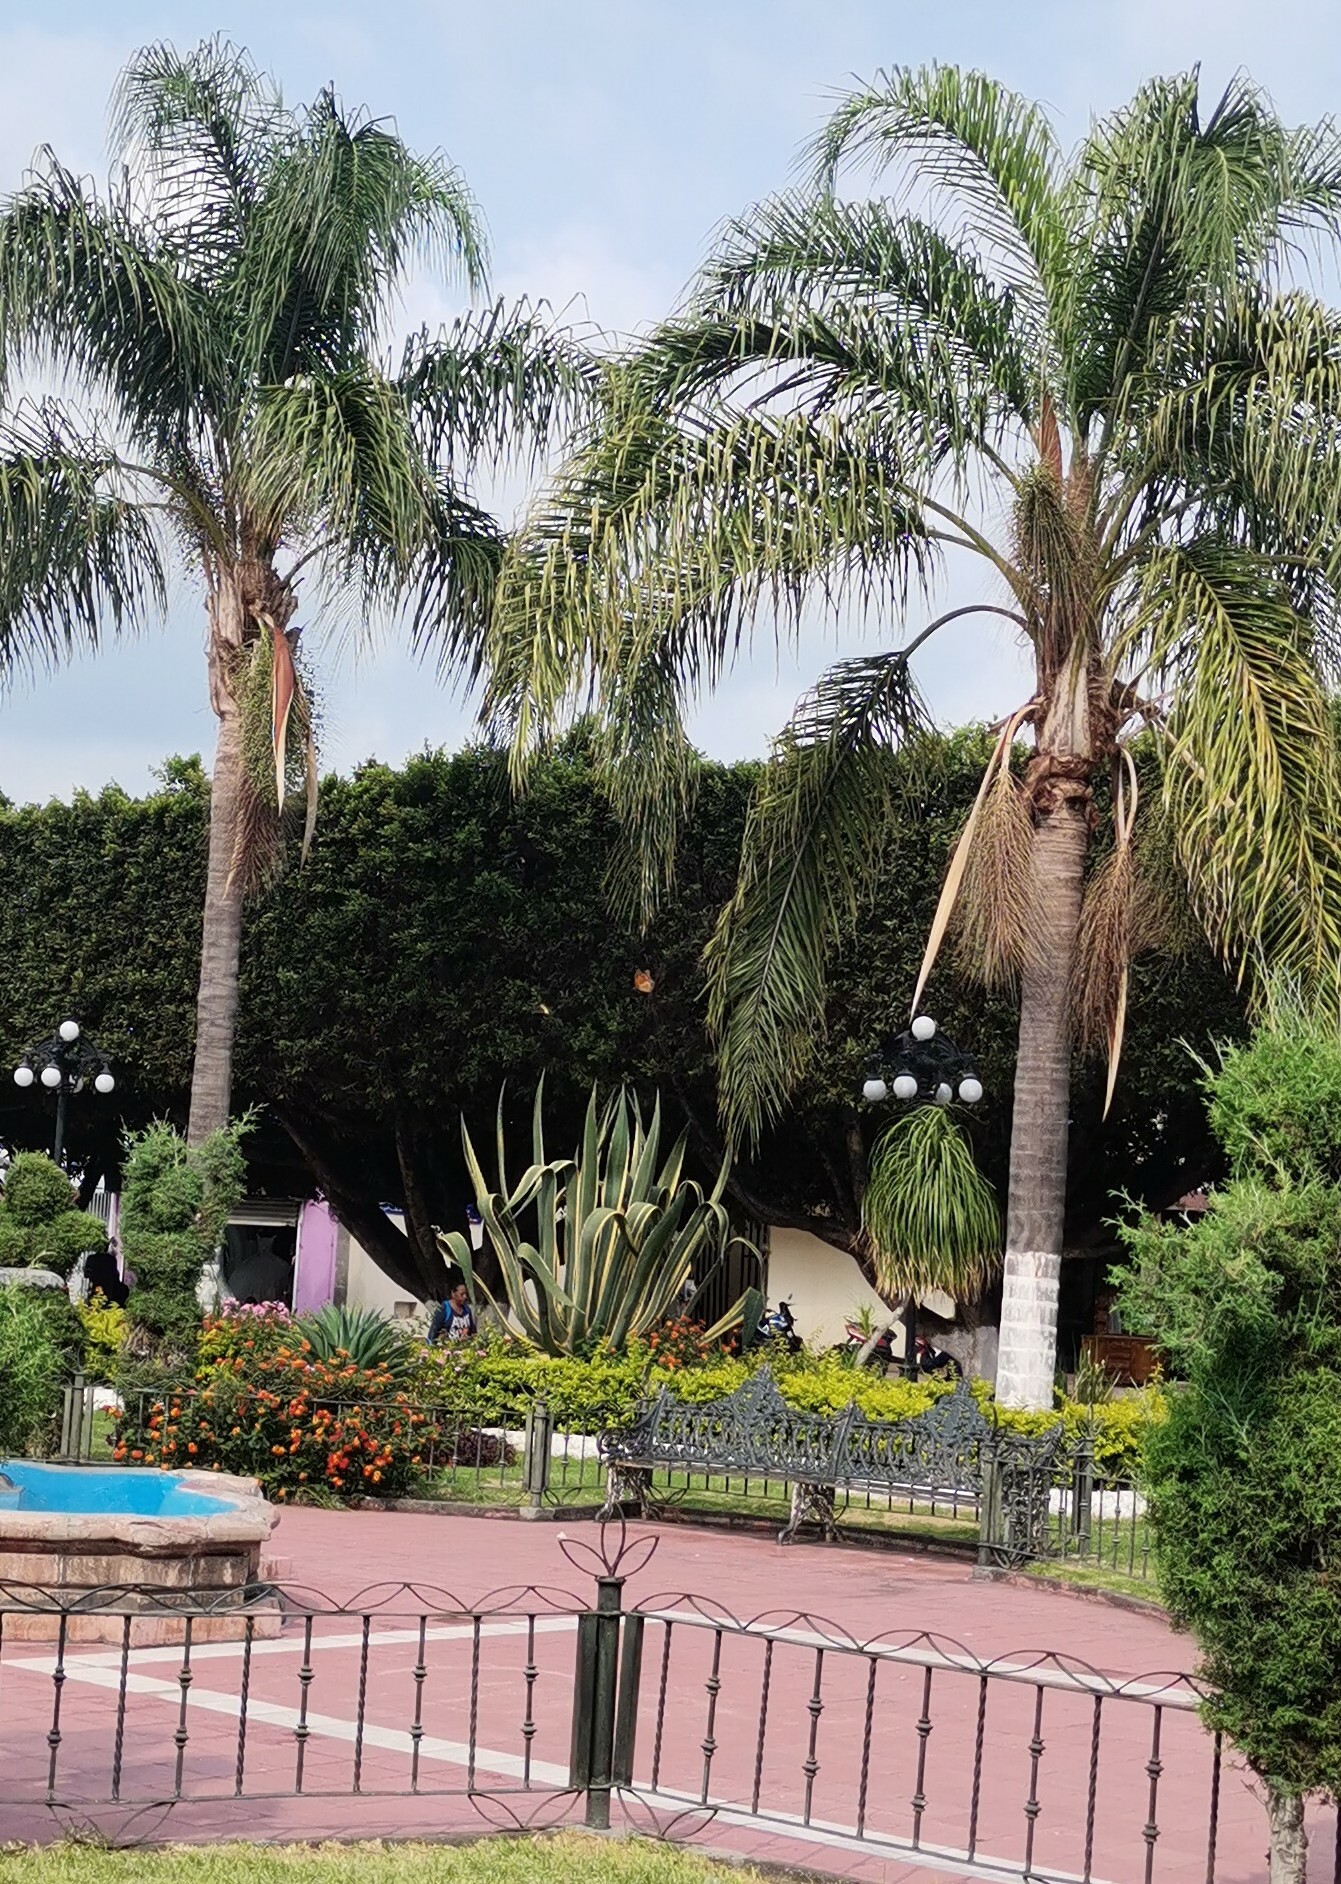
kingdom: Animalia
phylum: Arthropoda
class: Insecta
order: Lepidoptera
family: Nymphalidae
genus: Danaus
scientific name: Danaus plexippus
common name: Monarch
